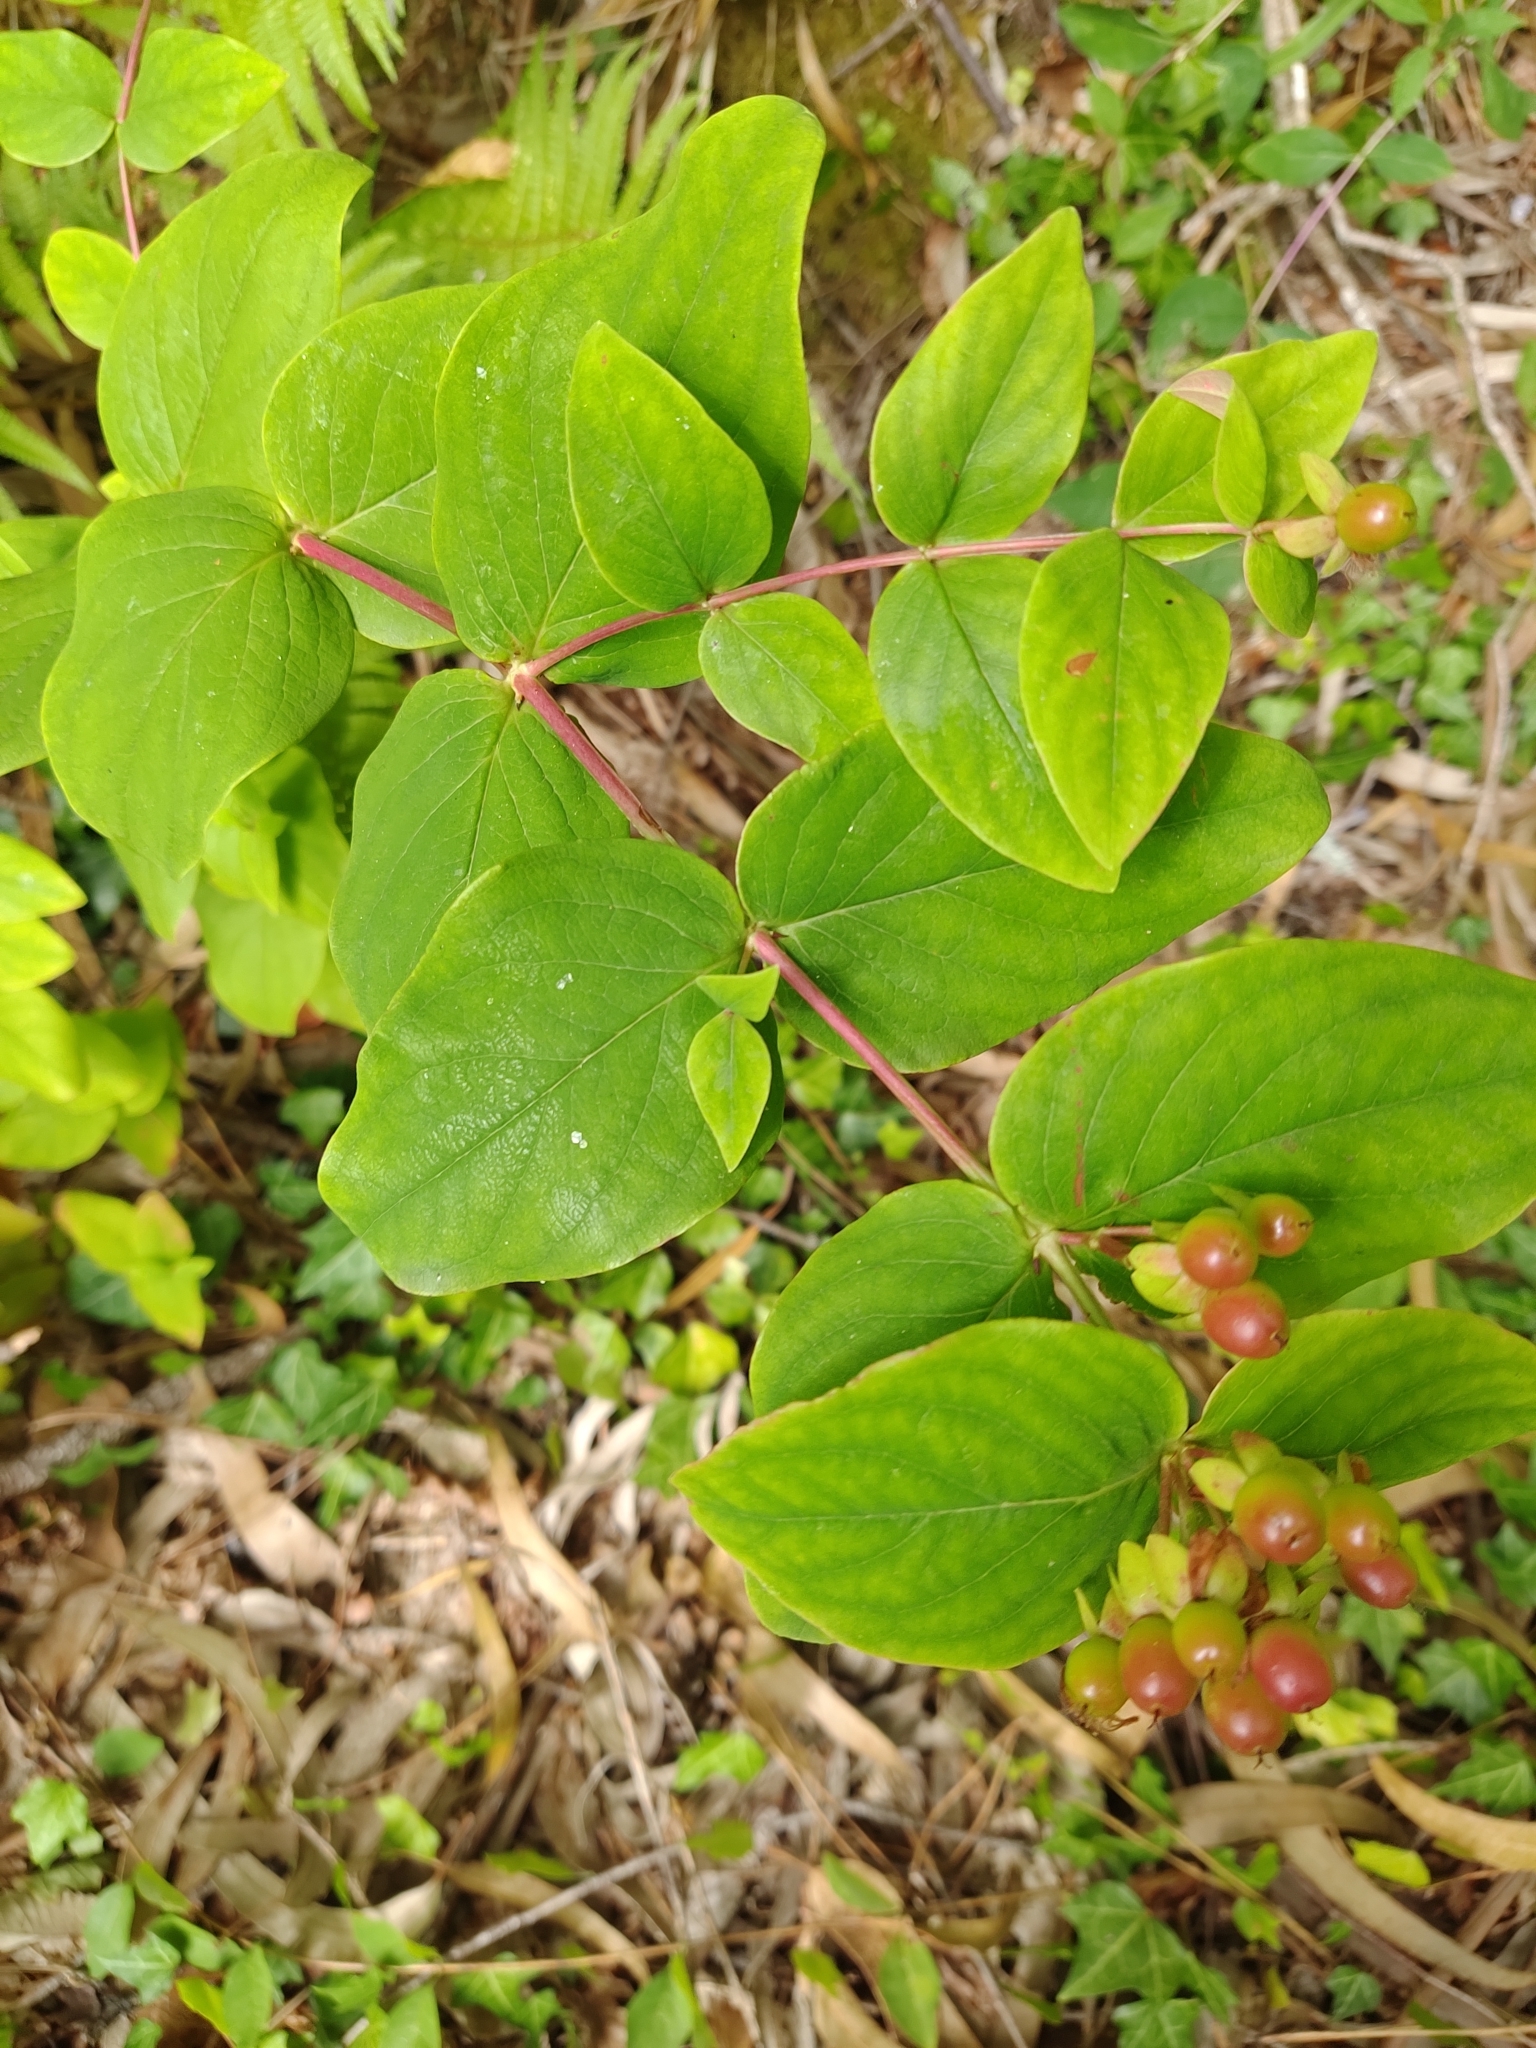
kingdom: Plantae
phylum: Tracheophyta
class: Magnoliopsida
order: Malpighiales
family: Hypericaceae
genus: Hypericum
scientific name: Hypericum androsaemum
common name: Sweet-amber
